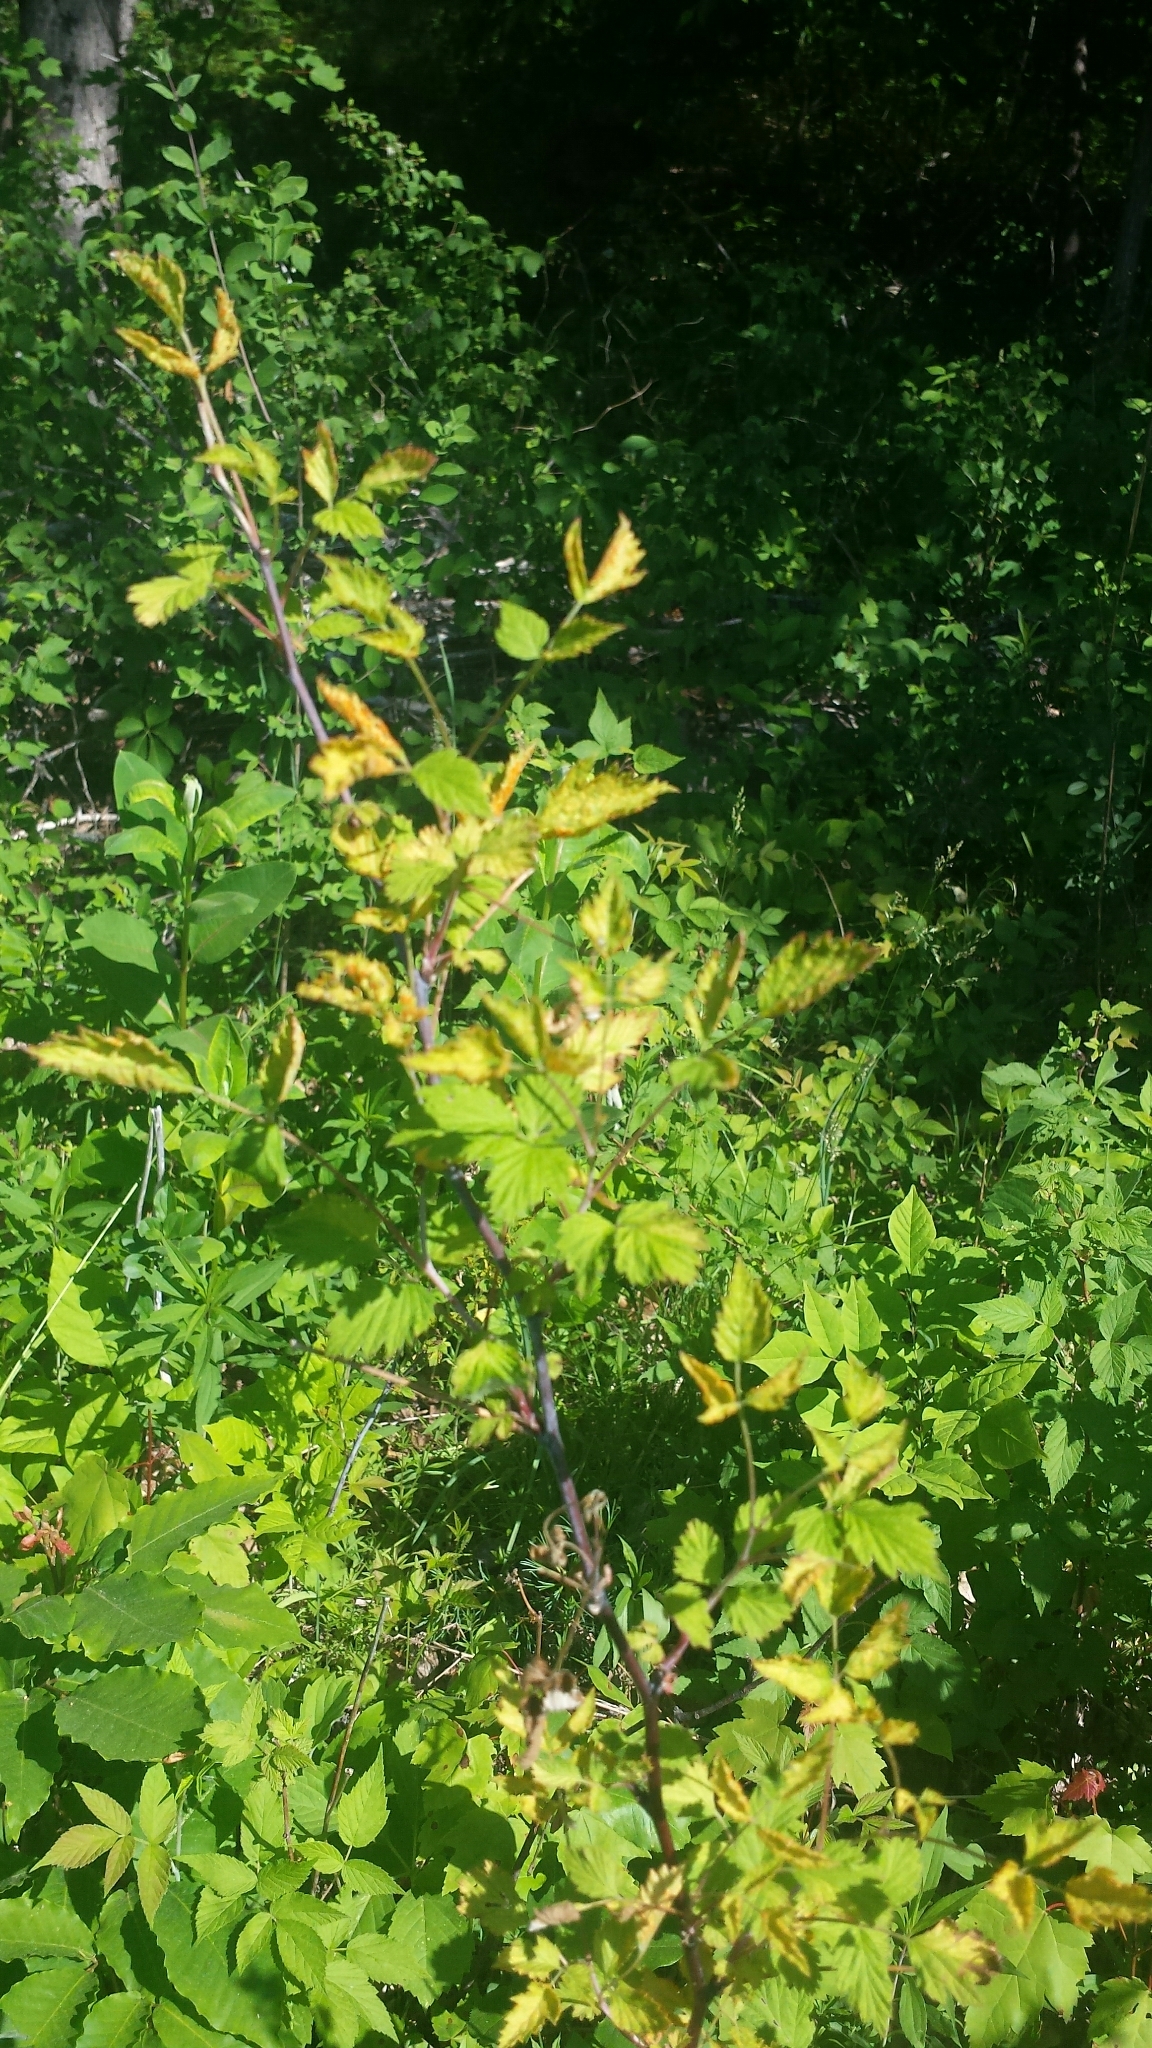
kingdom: Plantae
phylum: Tracheophyta
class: Magnoliopsida
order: Rosales
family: Rosaceae
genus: Rubus
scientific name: Rubus occidentalis
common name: Black raspberry
